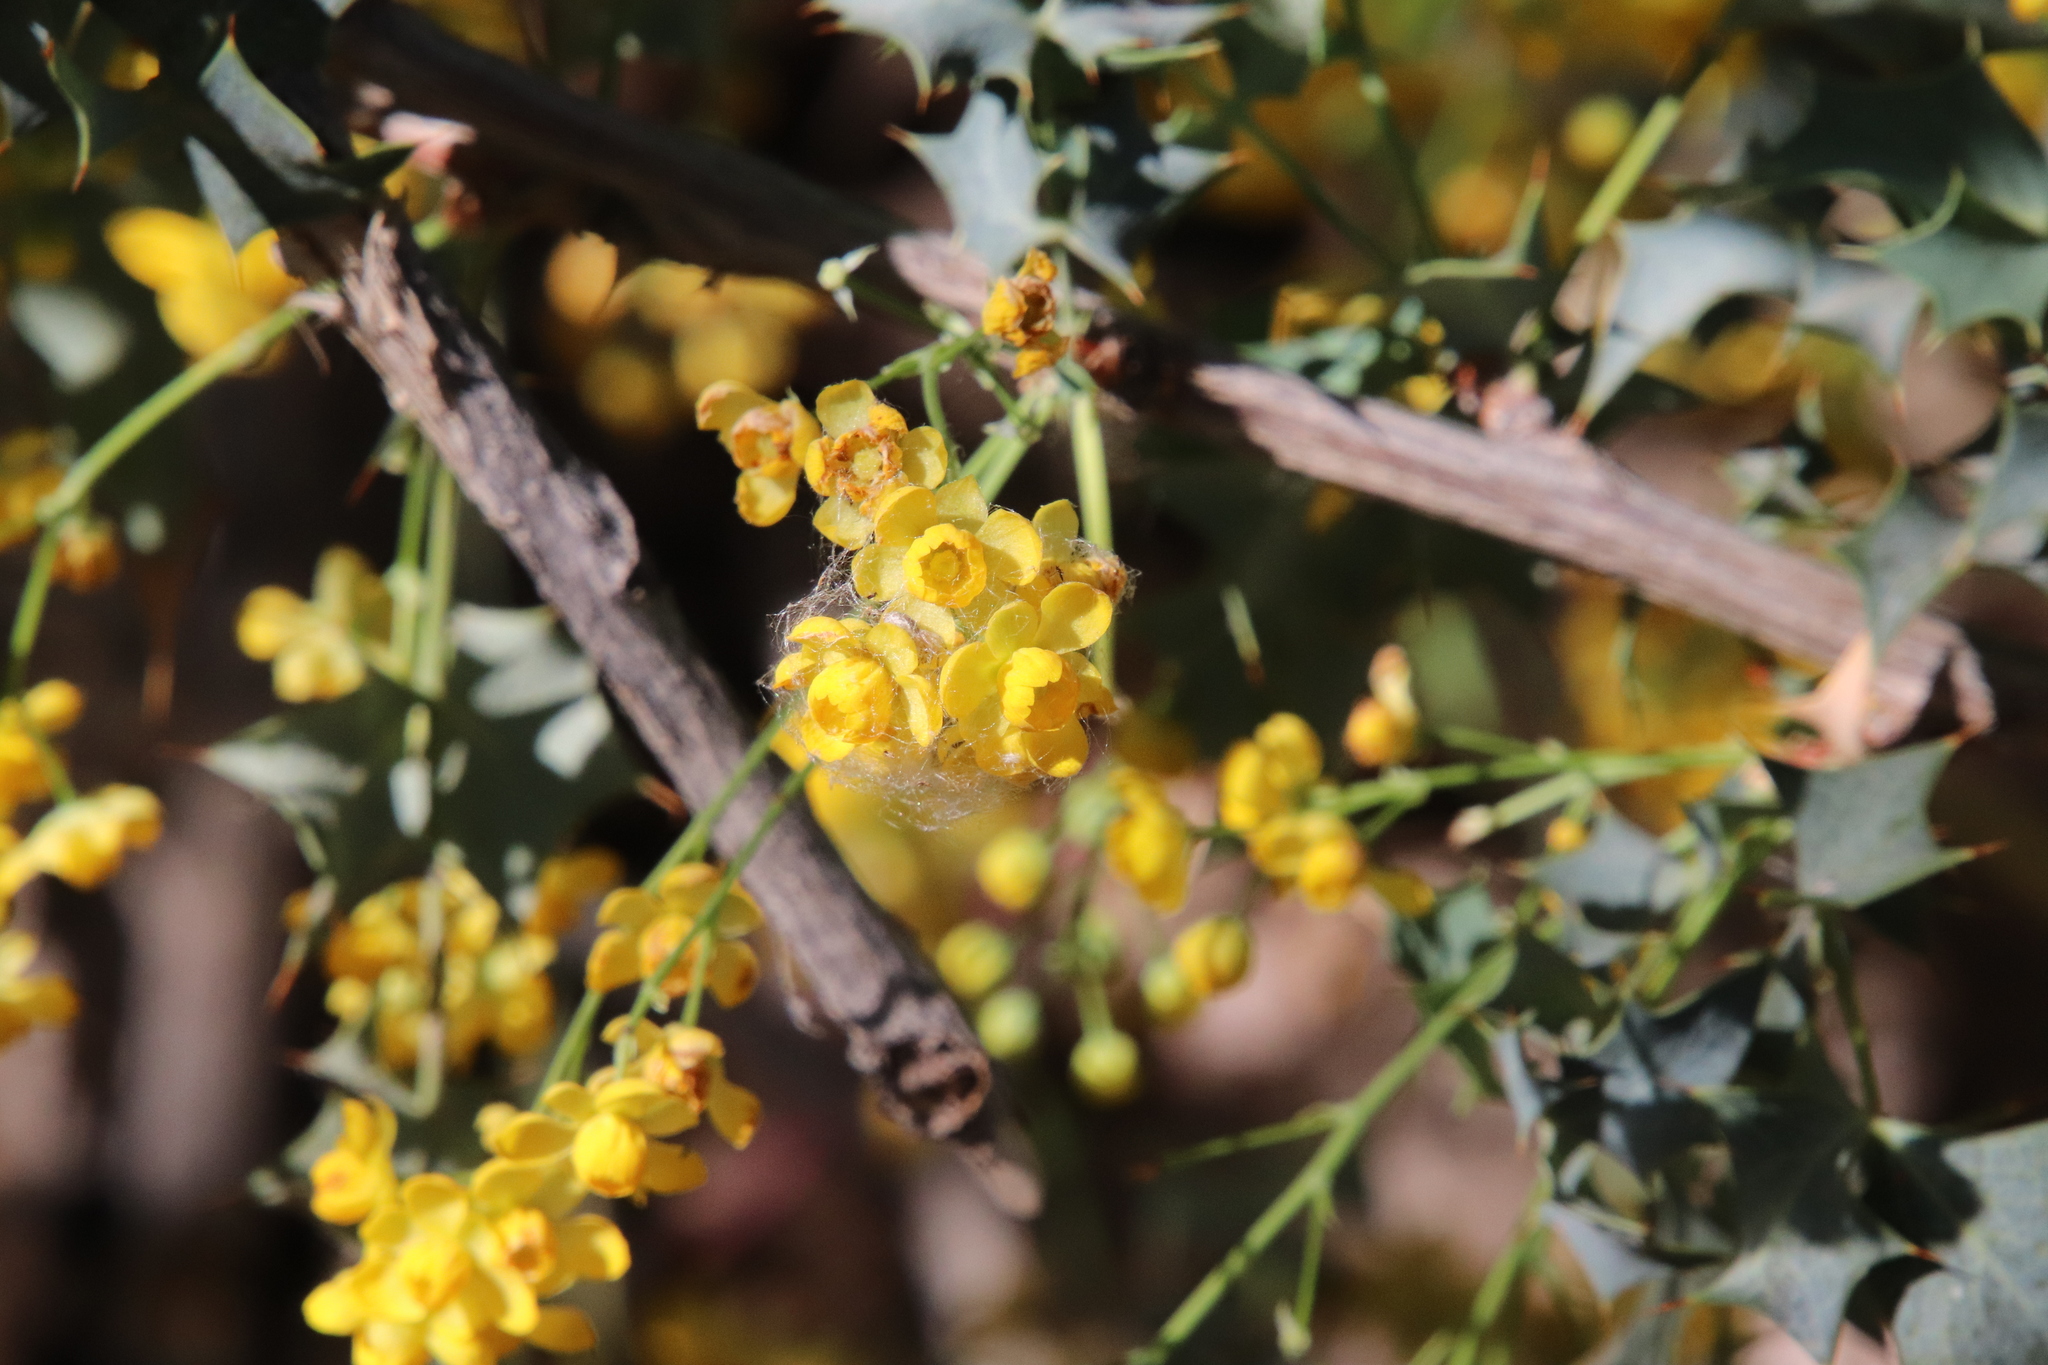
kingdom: Plantae
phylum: Tracheophyta
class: Magnoliopsida
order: Ranunculales
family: Berberidaceae
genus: Alloberberis
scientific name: Alloberberis fremontii
